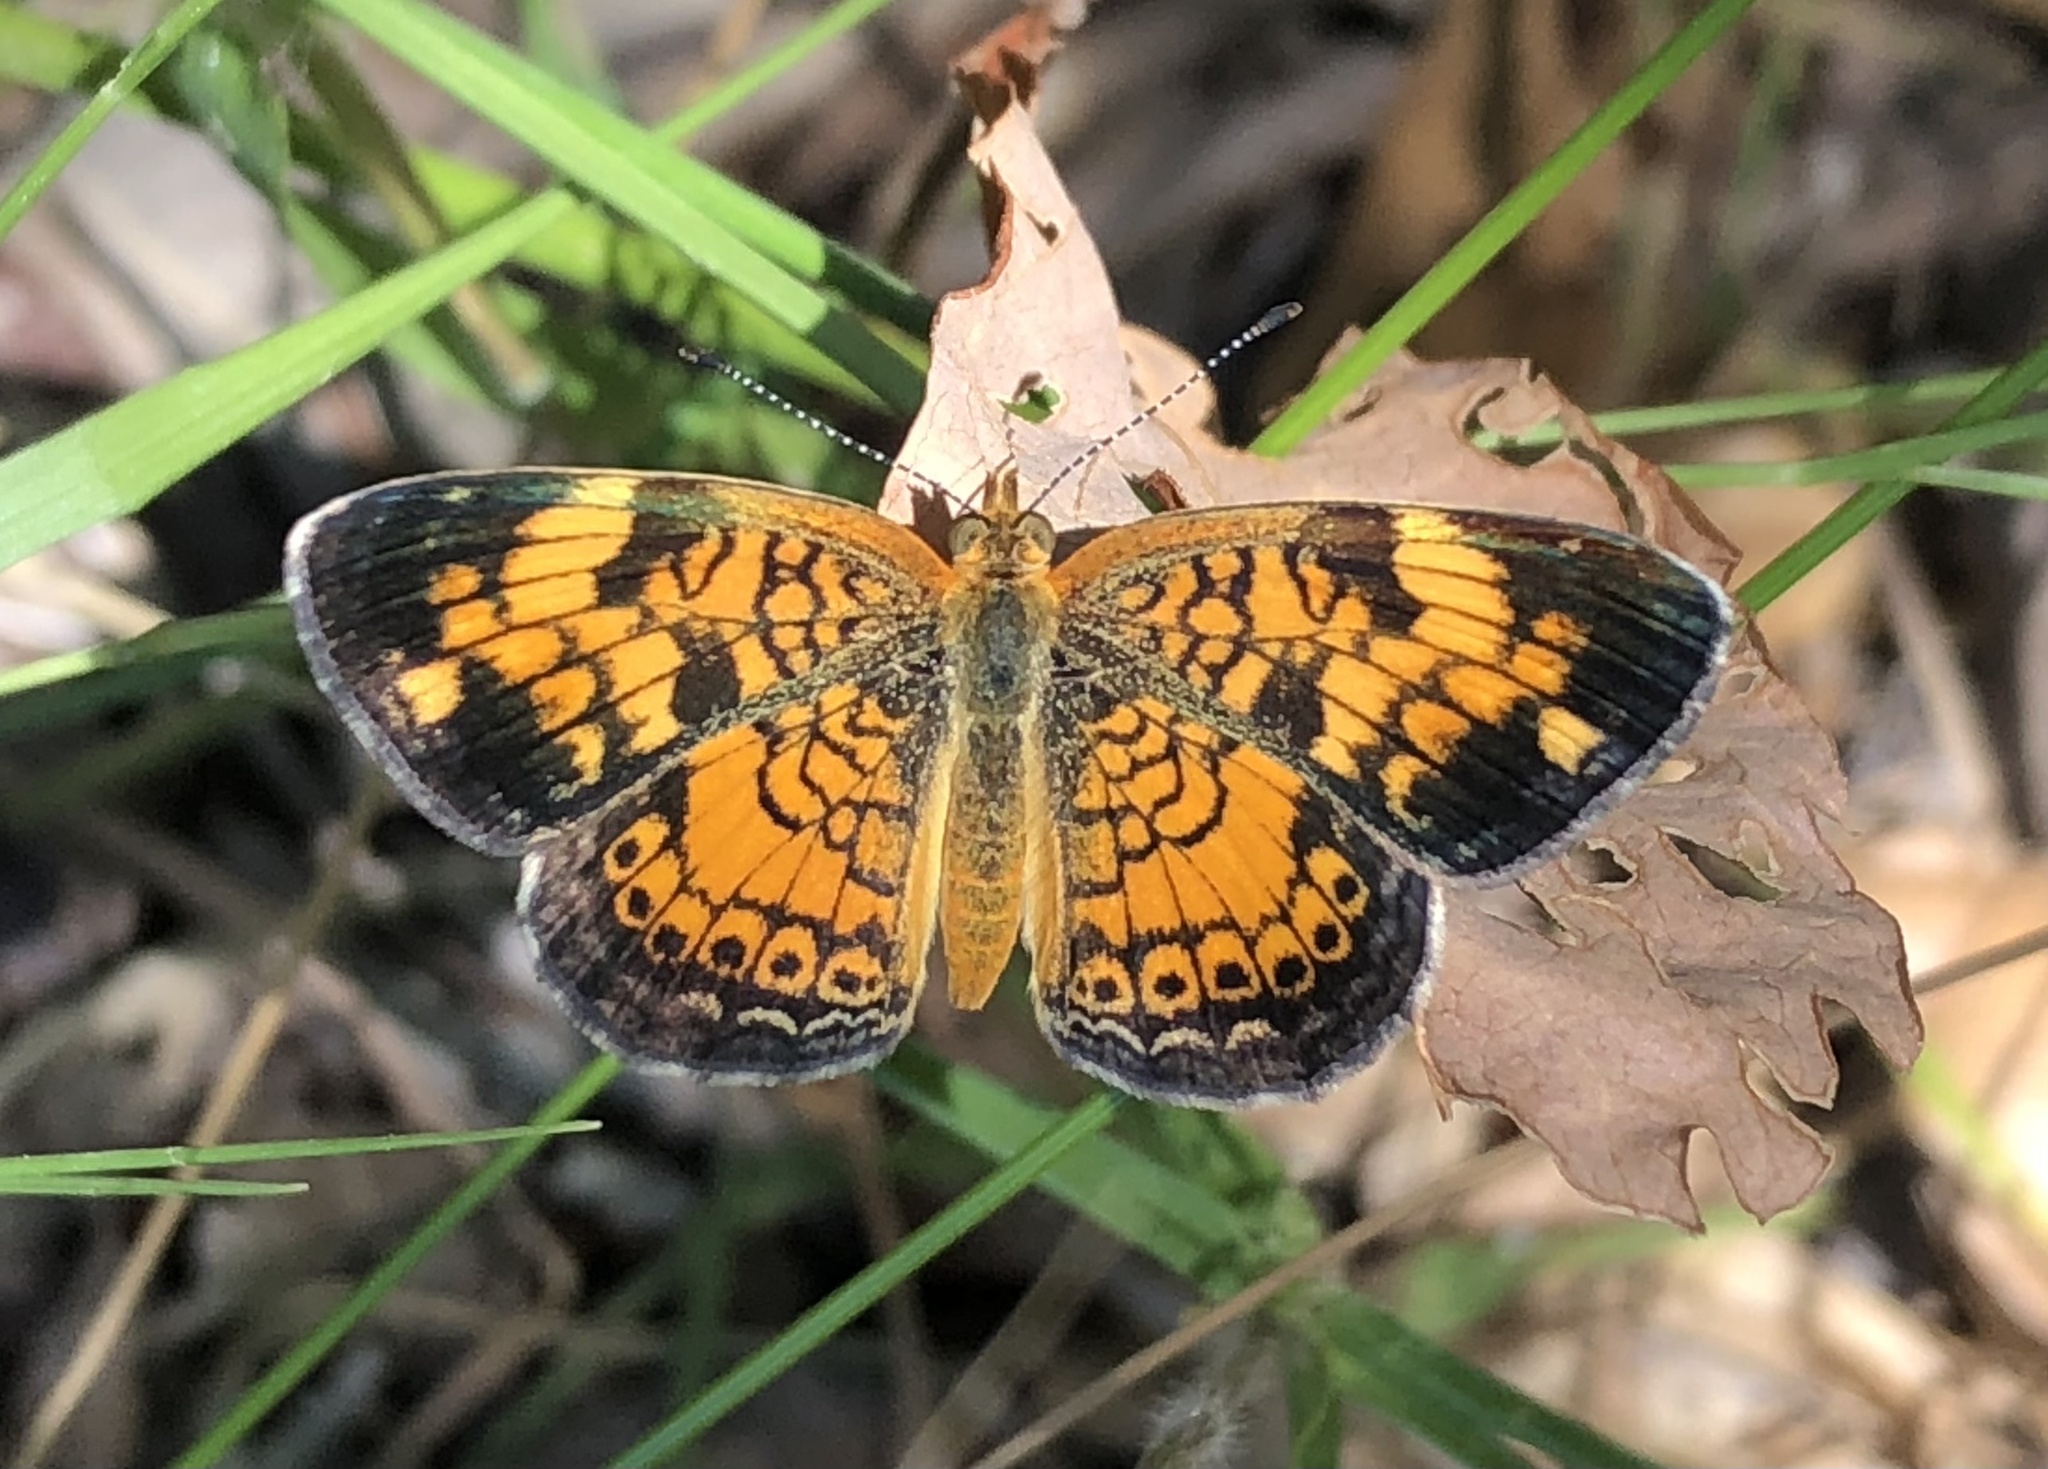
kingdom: Animalia
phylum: Arthropoda
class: Insecta
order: Lepidoptera
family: Nymphalidae
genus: Phyciodes
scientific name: Phyciodes tharos
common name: Pearl crescent
